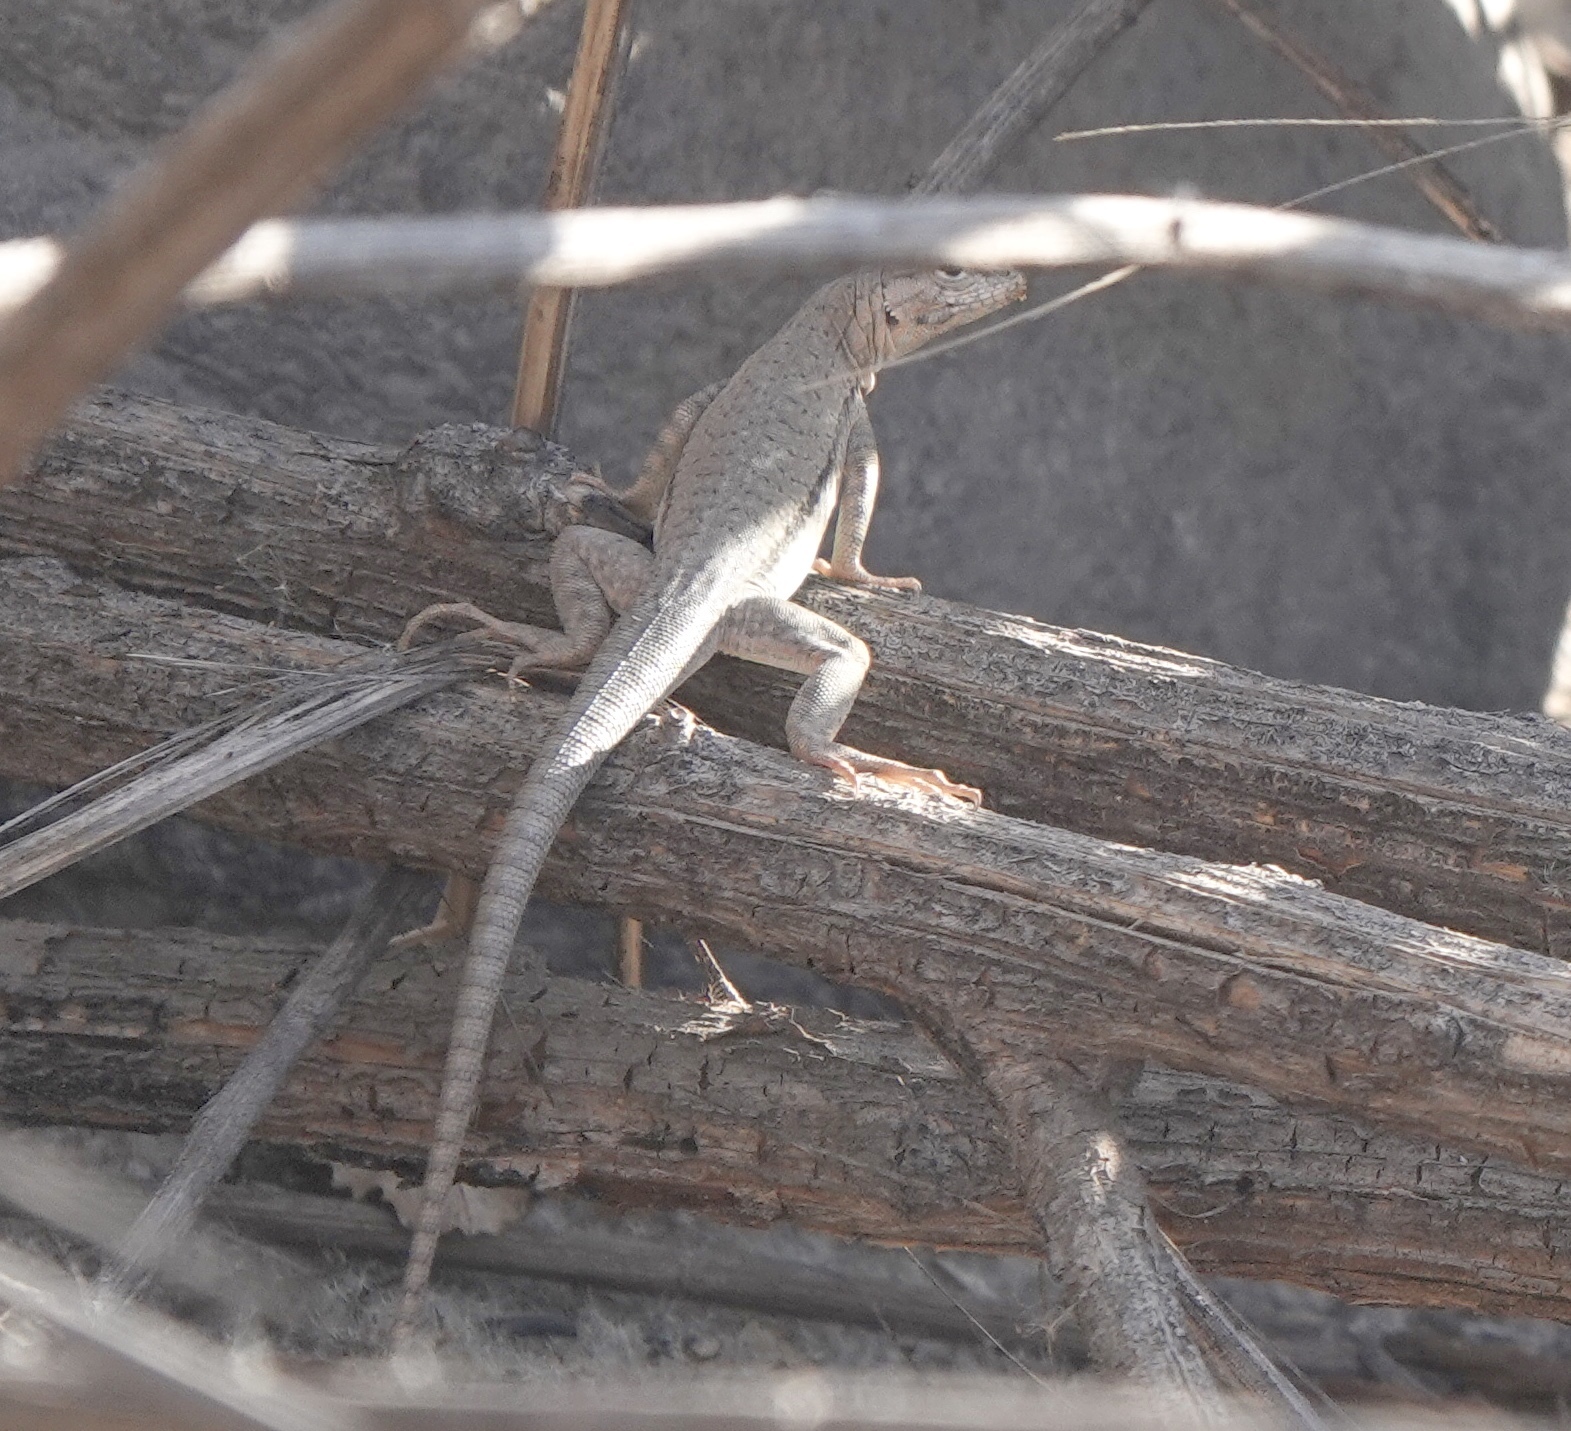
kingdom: Animalia
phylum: Chordata
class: Squamata
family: Tropiduridae
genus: Microlophus
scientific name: Microlophus yanezi
